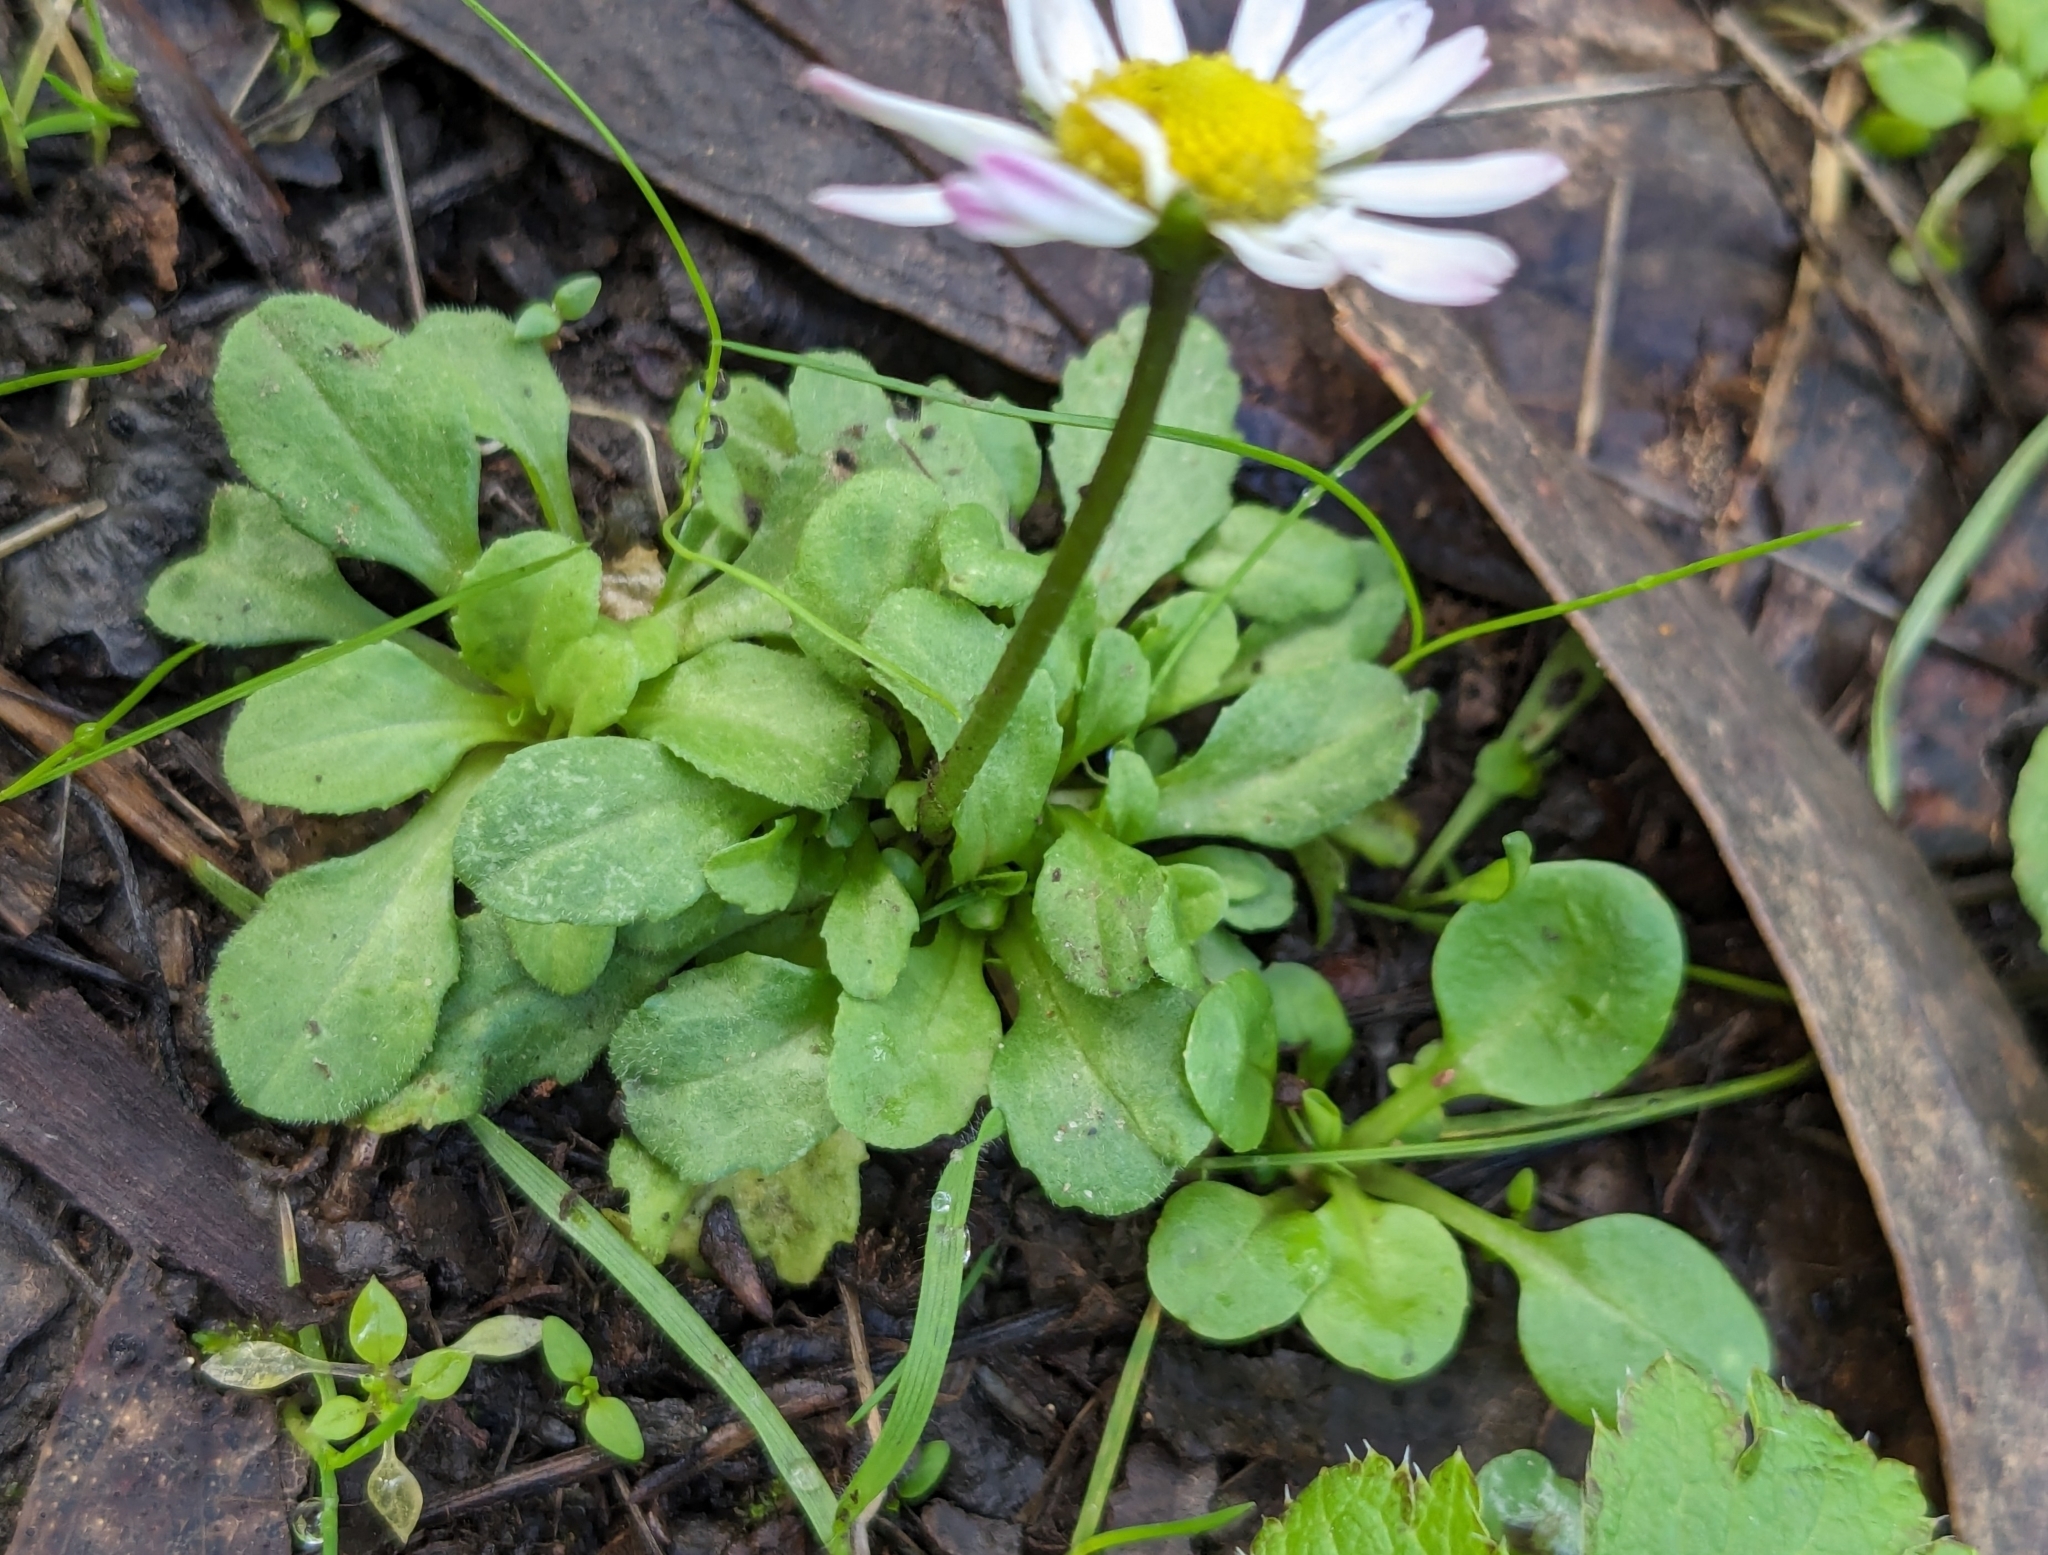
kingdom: Plantae
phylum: Tracheophyta
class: Magnoliopsida
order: Asterales
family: Asteraceae
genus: Bellis
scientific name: Bellis perennis
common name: Lawndaisy
